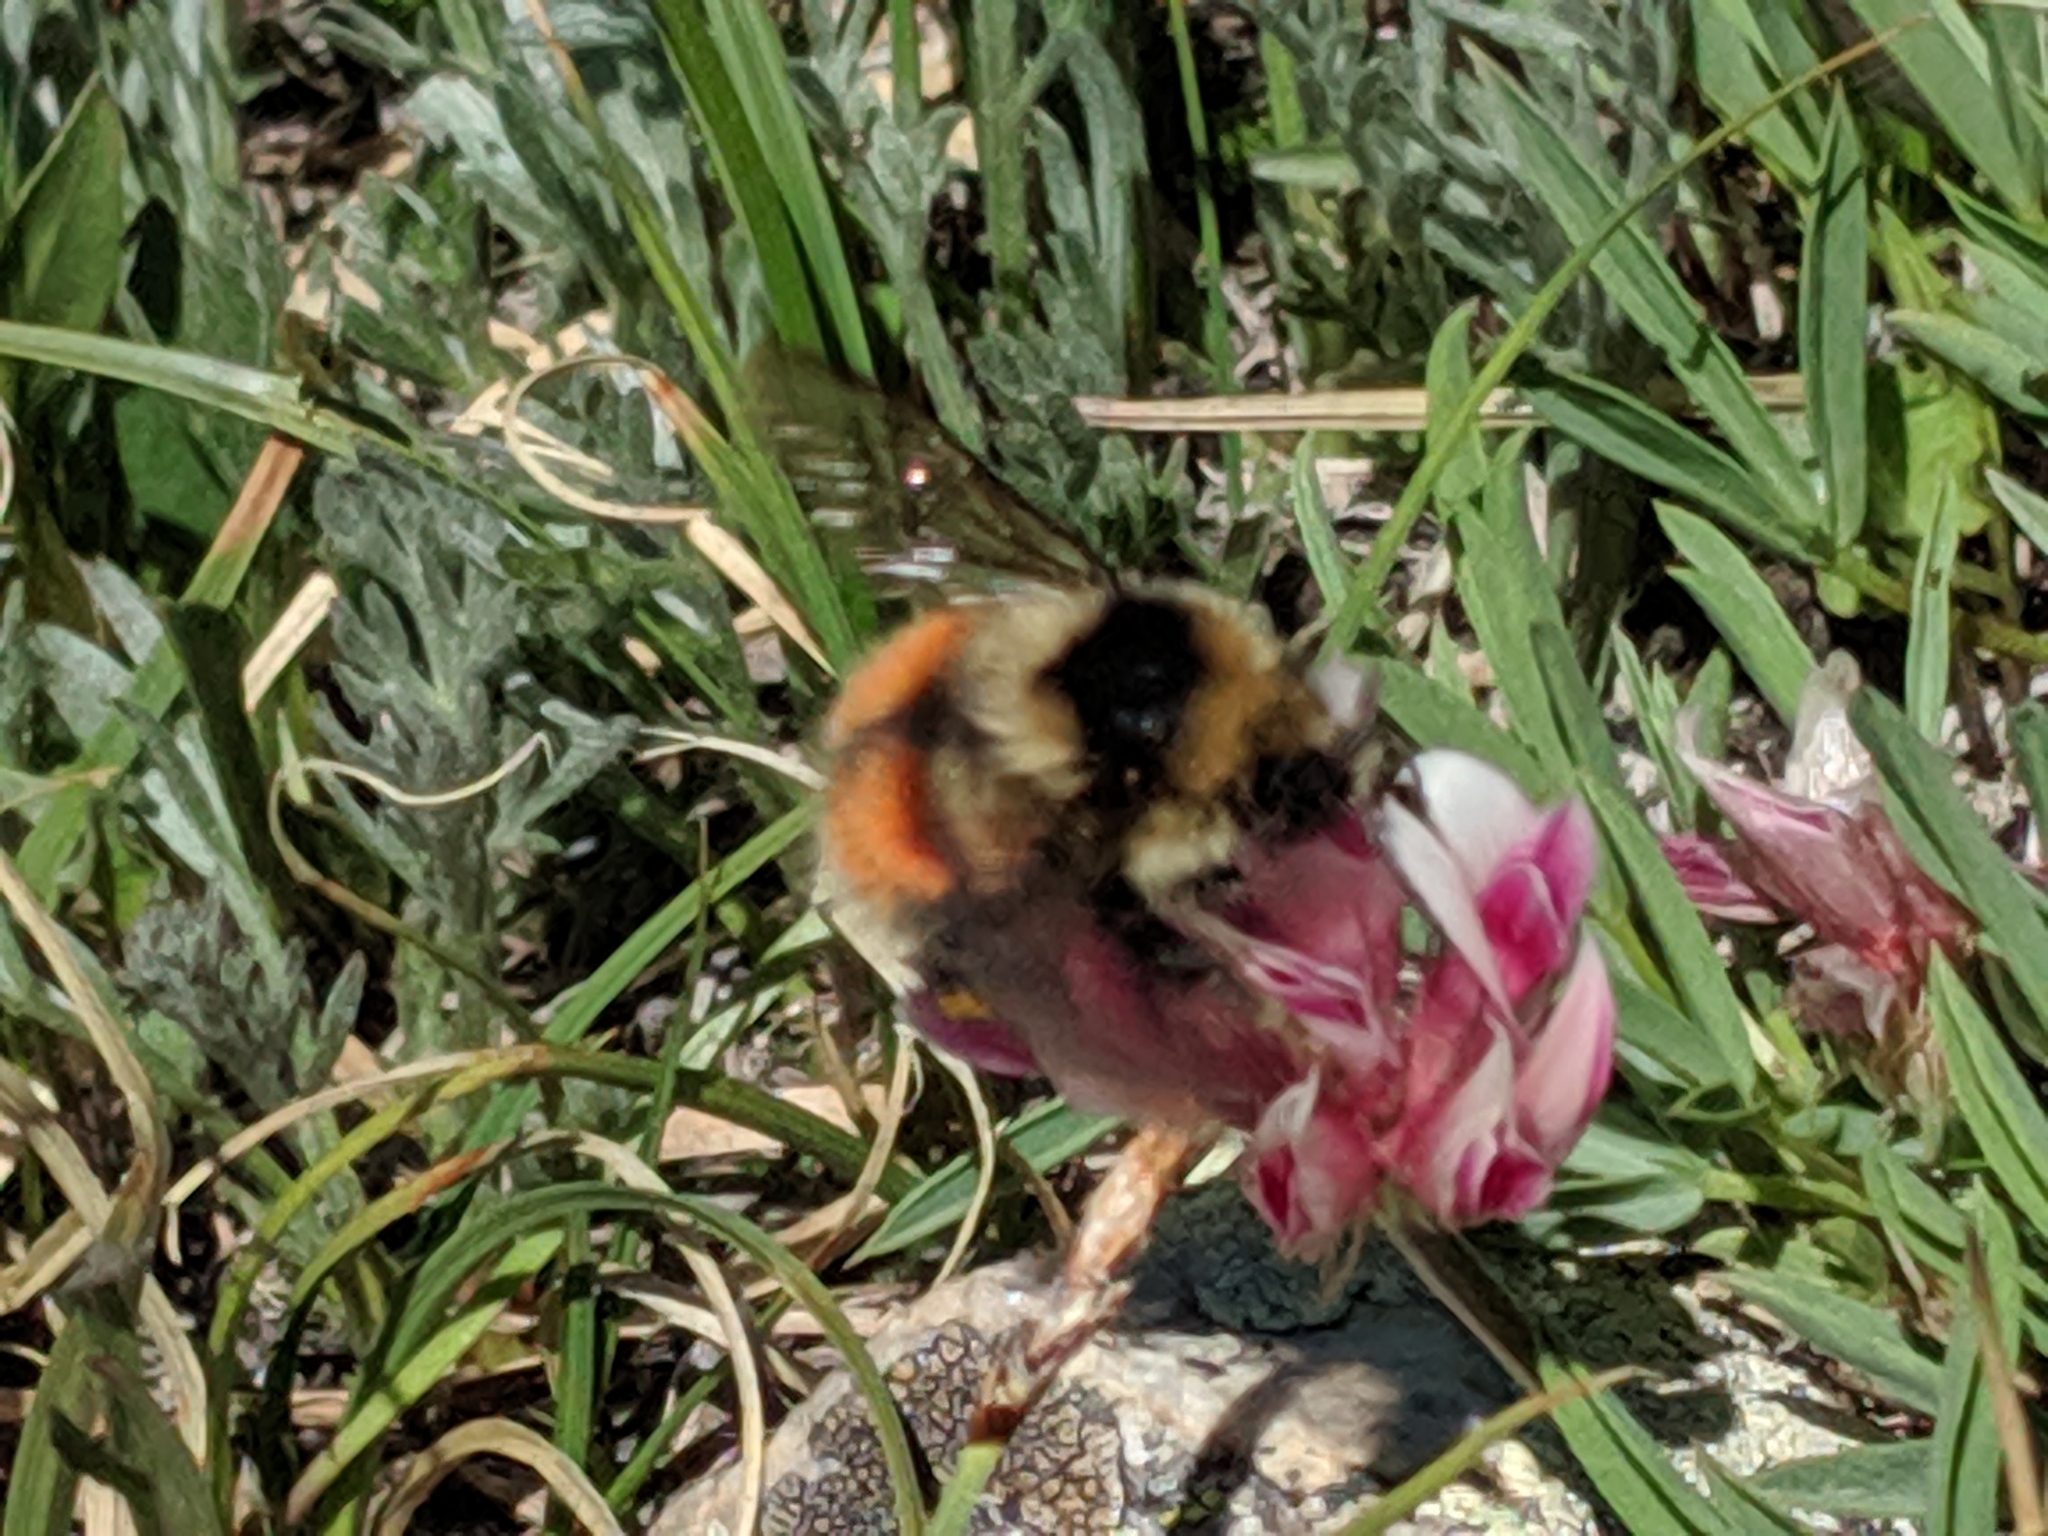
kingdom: Animalia
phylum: Arthropoda
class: Insecta
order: Hymenoptera
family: Apidae
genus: Bombus
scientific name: Bombus sylvicola
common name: Forest bumble bee
